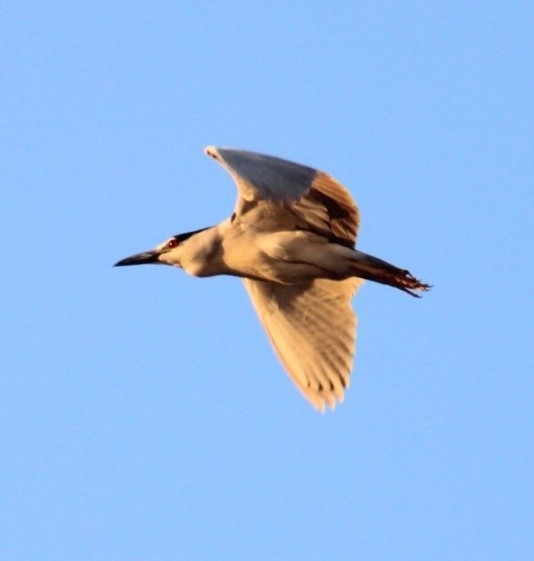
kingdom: Animalia
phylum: Chordata
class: Aves
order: Pelecaniformes
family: Ardeidae
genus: Nycticorax
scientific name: Nycticorax nycticorax
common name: Black-crowned night heron
